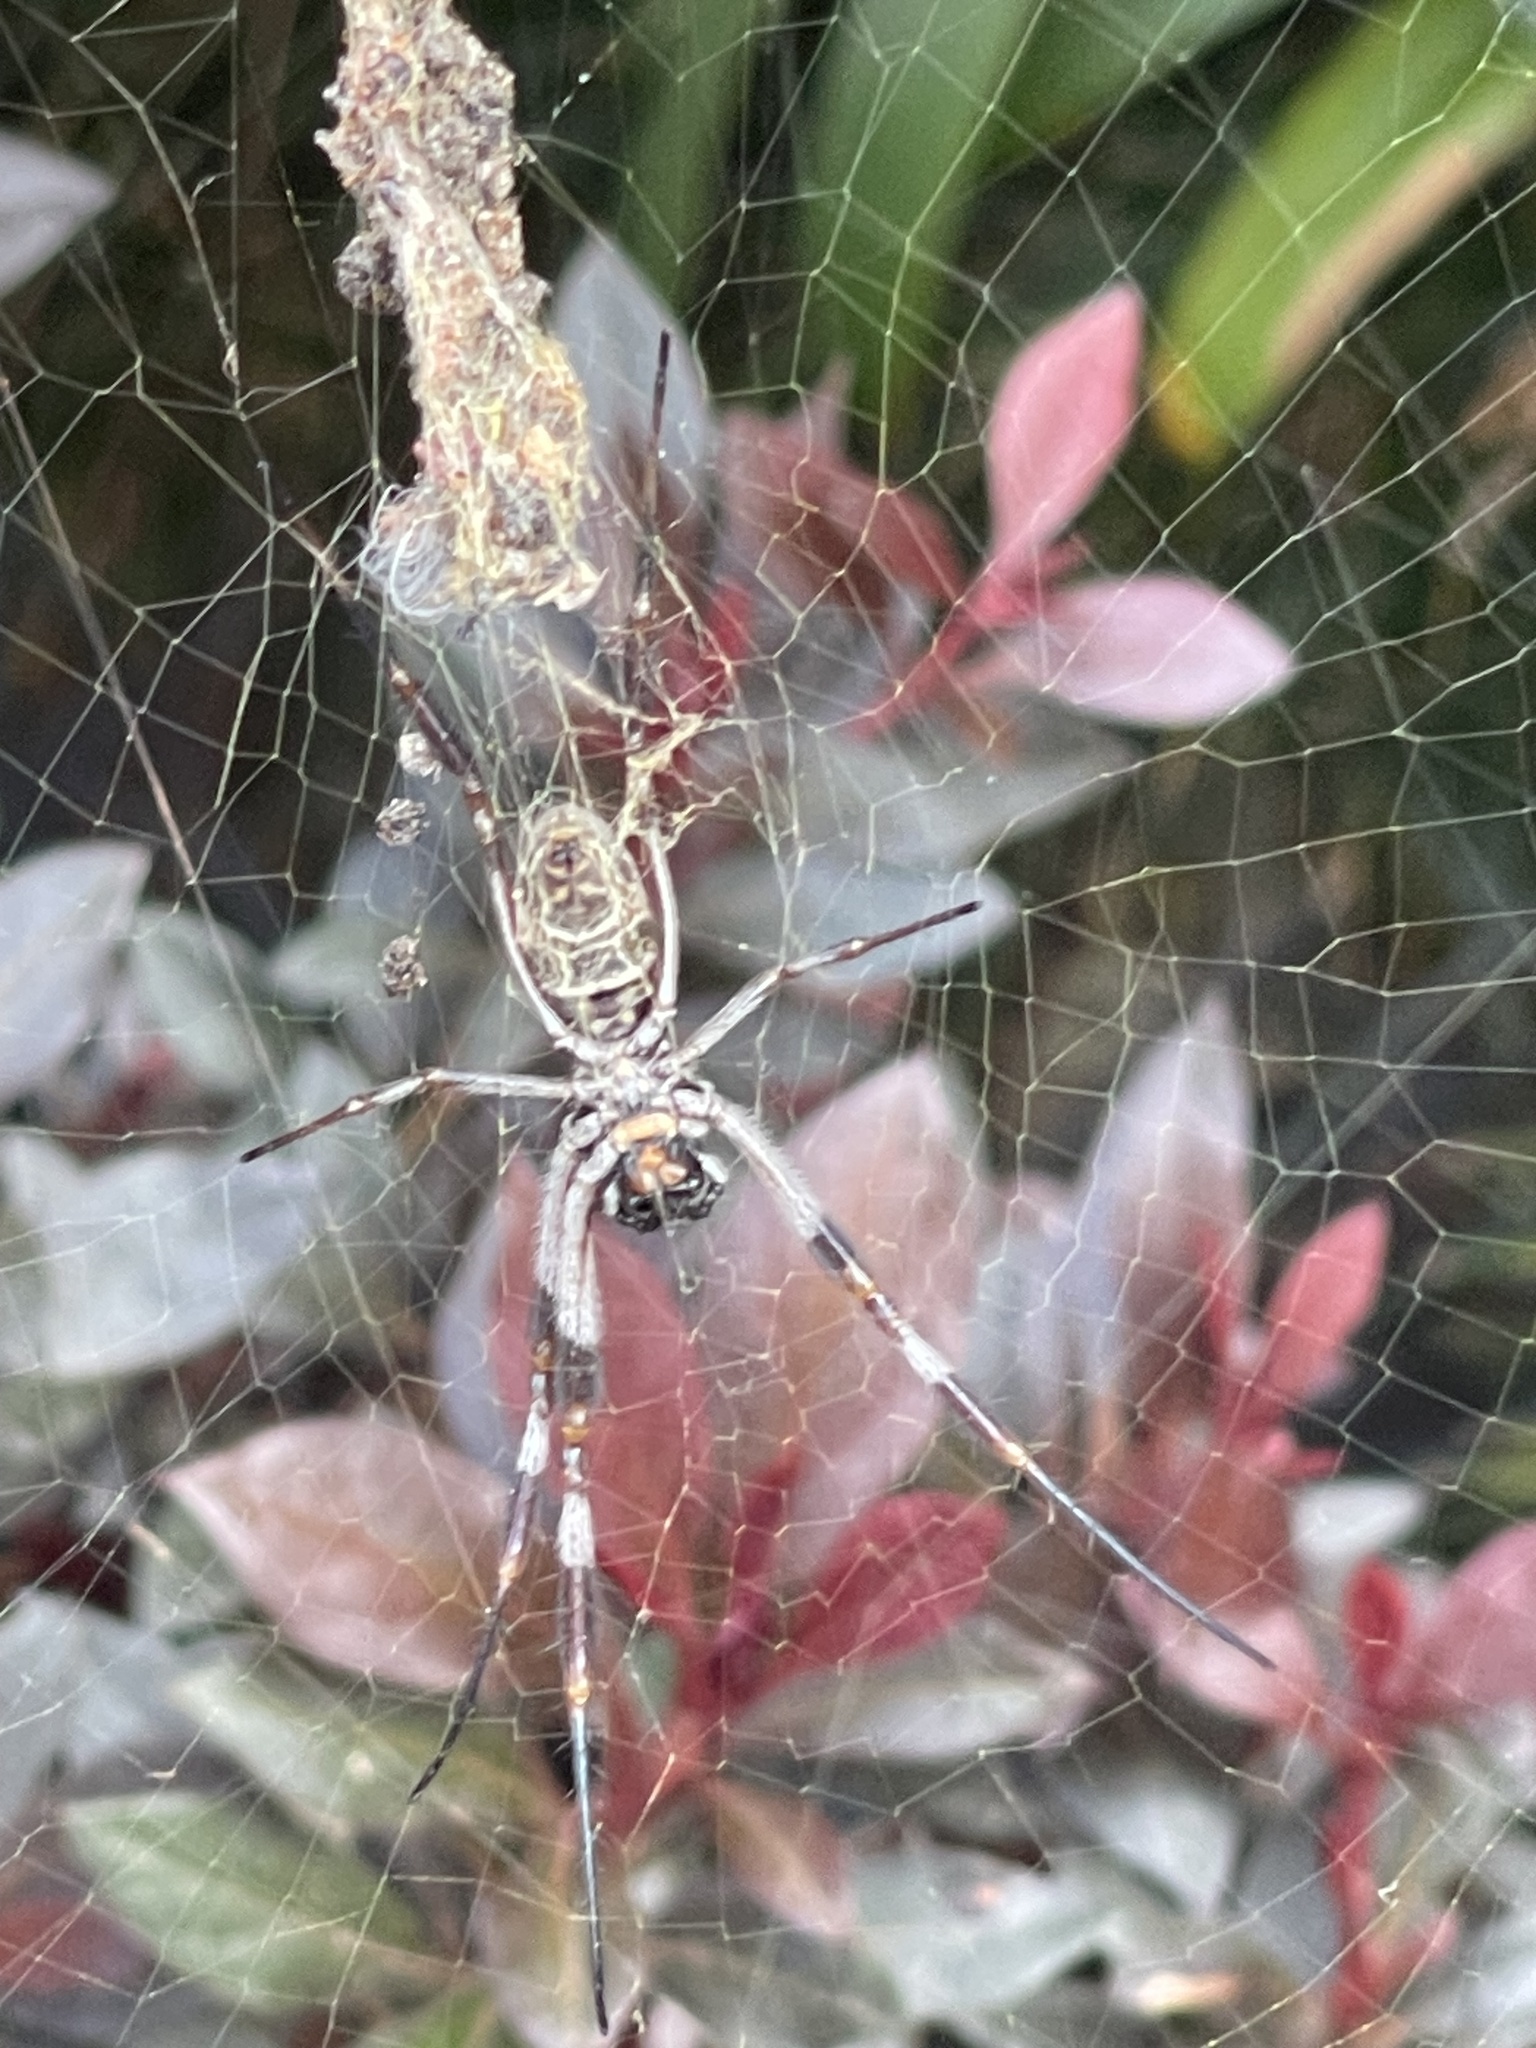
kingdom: Animalia
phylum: Arthropoda
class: Arachnida
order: Araneae
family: Araneidae
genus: Trichonephila
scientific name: Trichonephila edulis
